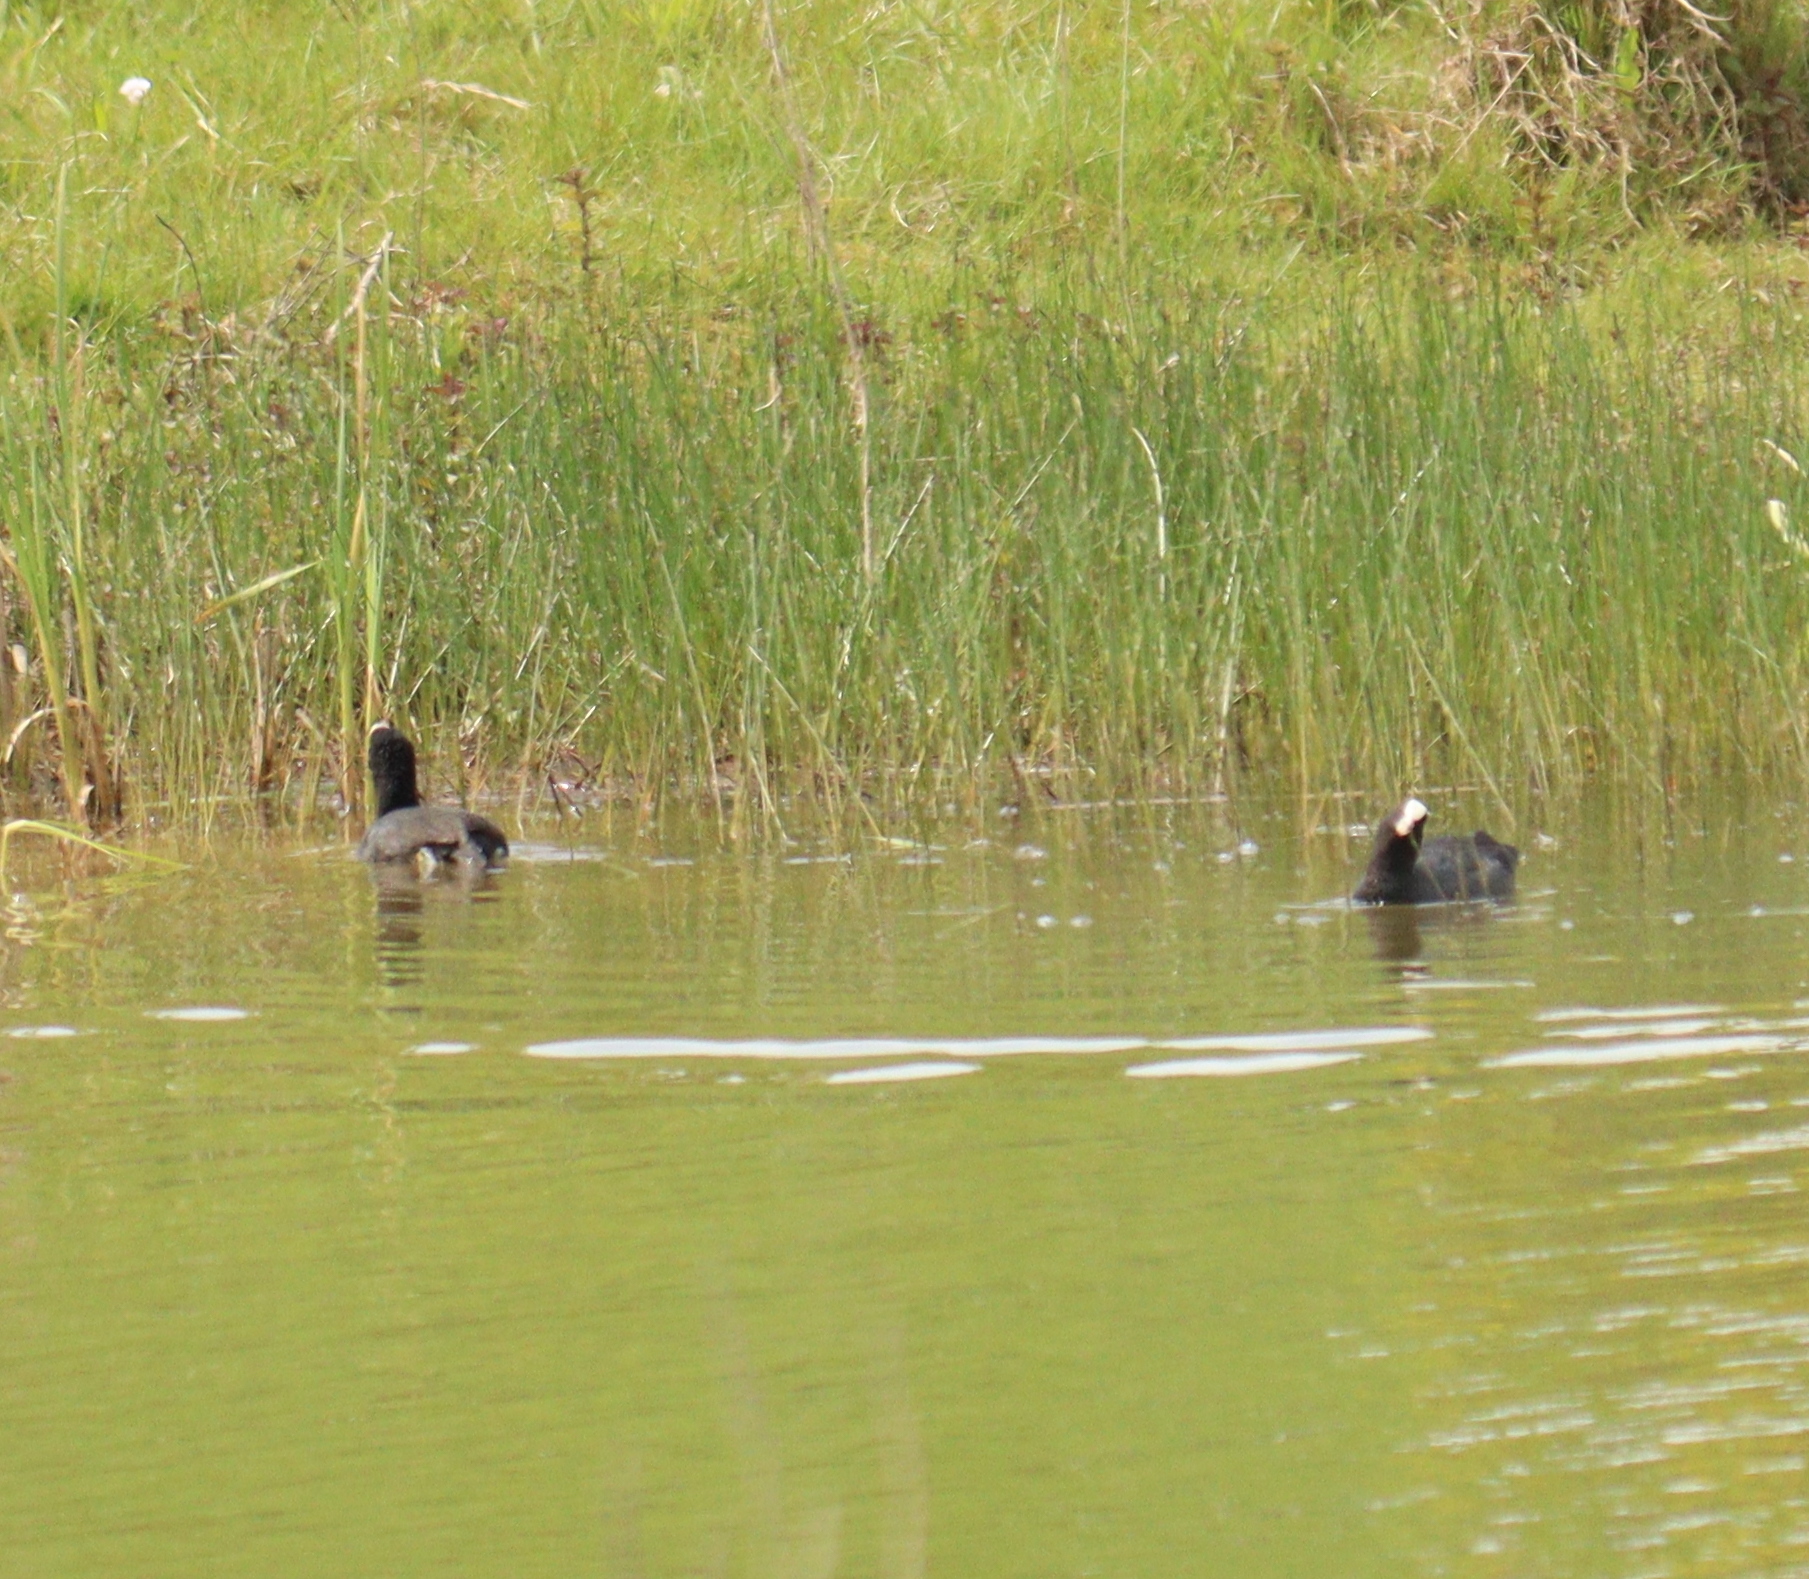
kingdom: Animalia
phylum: Chordata
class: Aves
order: Gruiformes
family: Rallidae
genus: Fulica
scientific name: Fulica atra
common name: Eurasian coot
